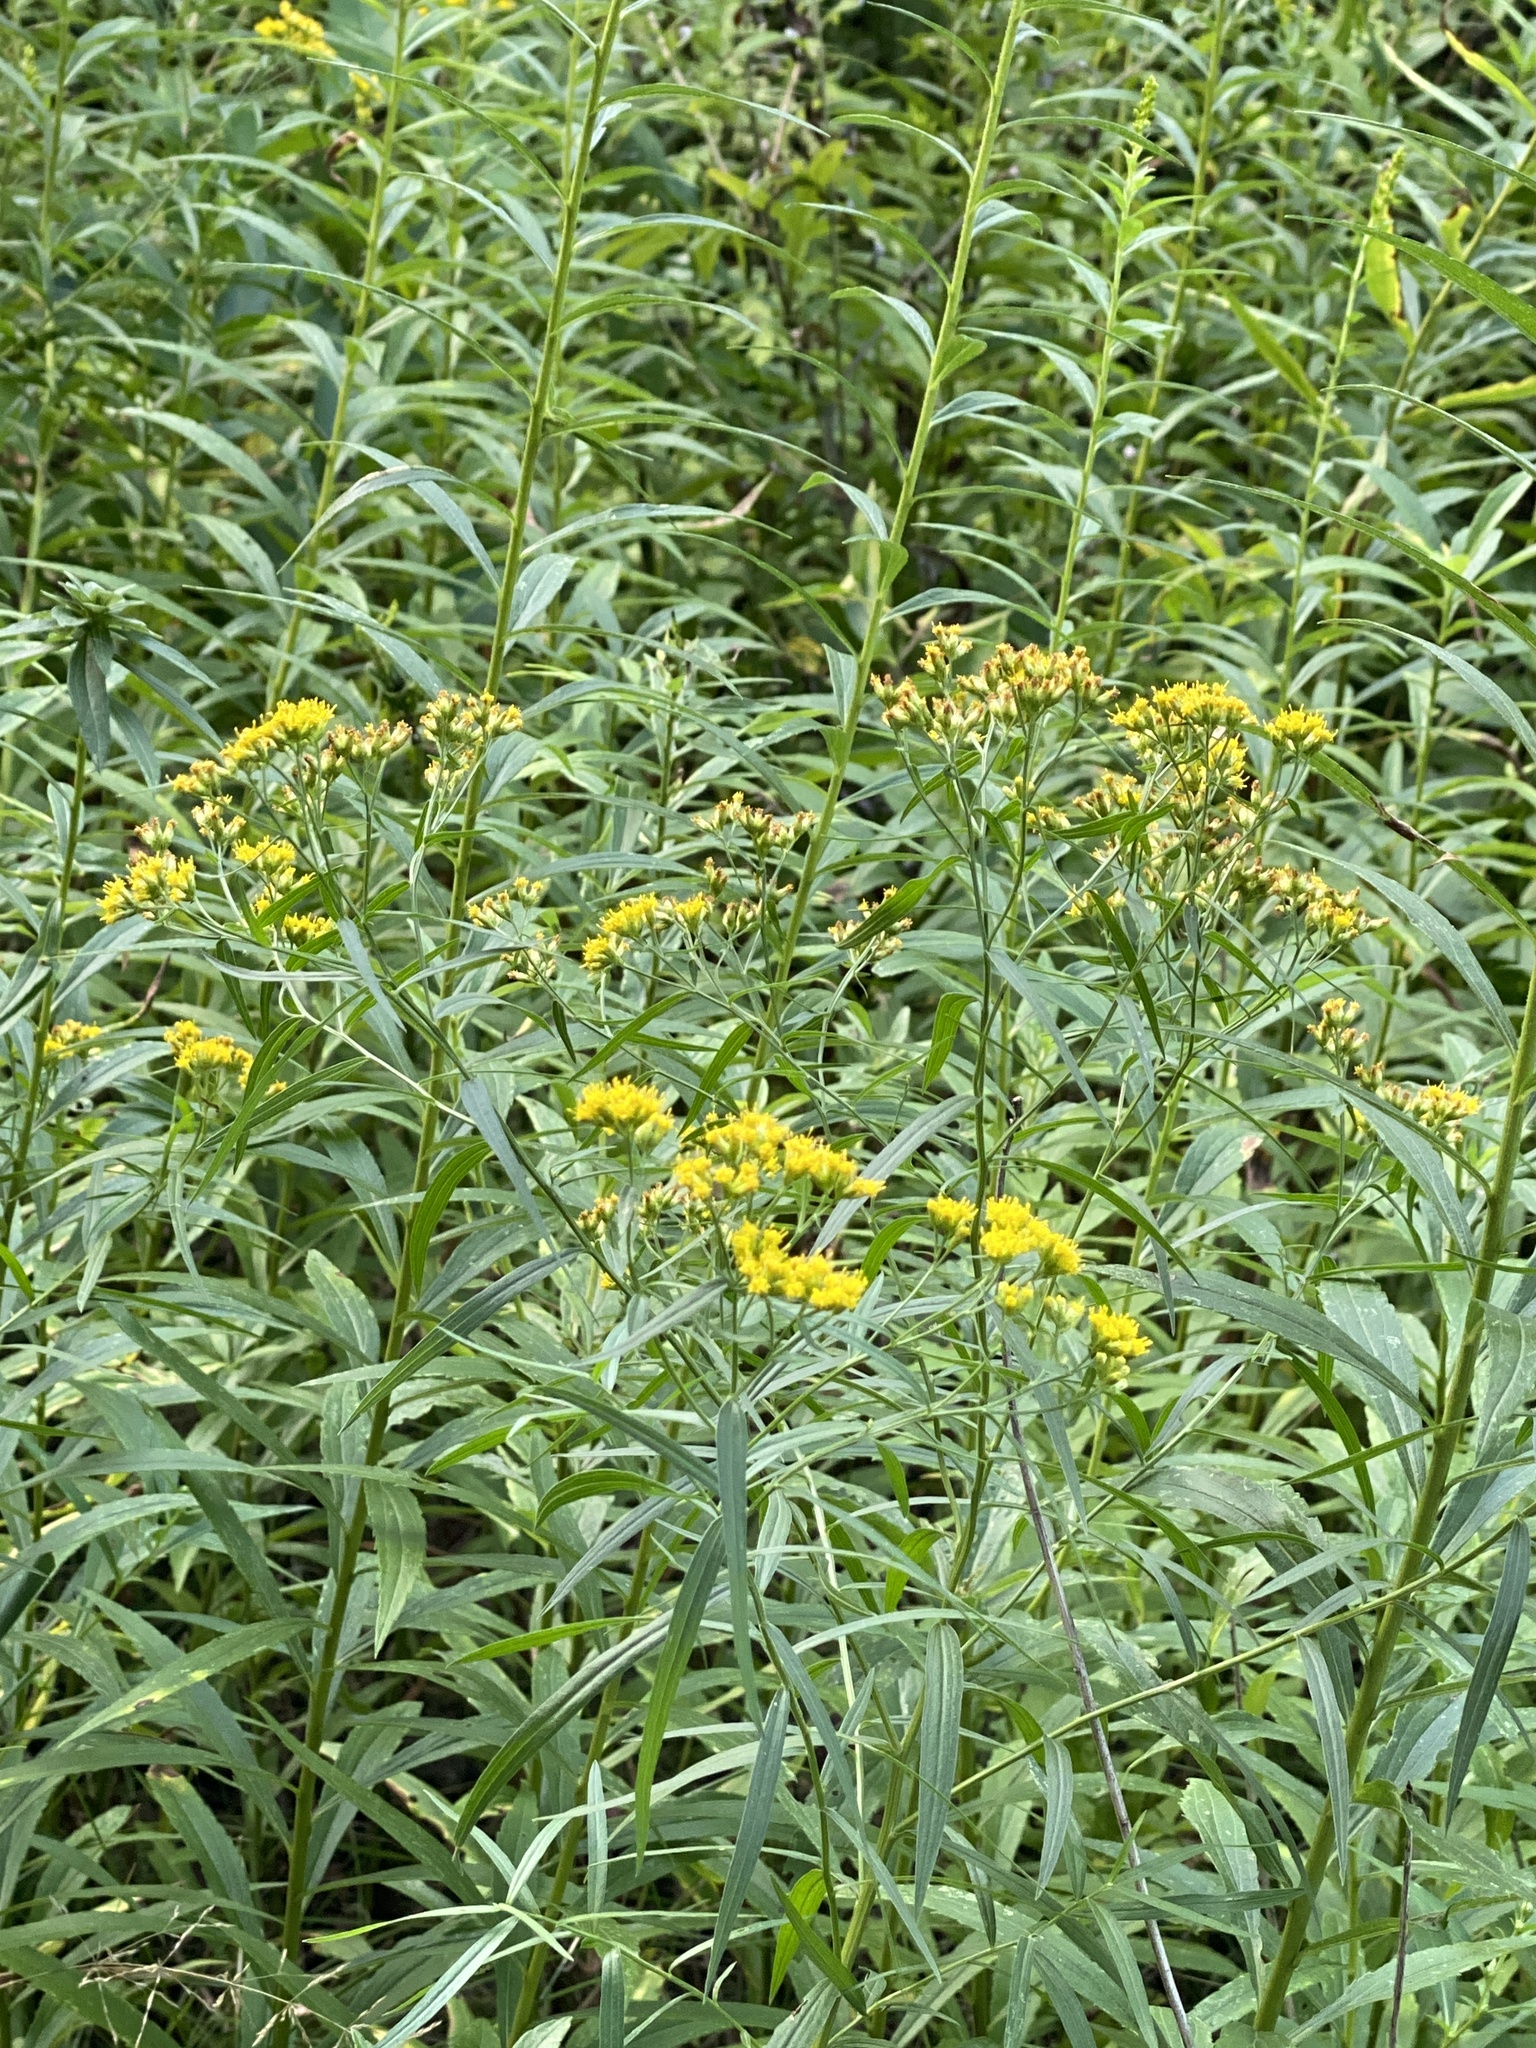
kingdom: Plantae
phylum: Tracheophyta
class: Magnoliopsida
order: Asterales
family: Asteraceae
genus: Euthamia
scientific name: Euthamia graminifolia
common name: Common goldentop
